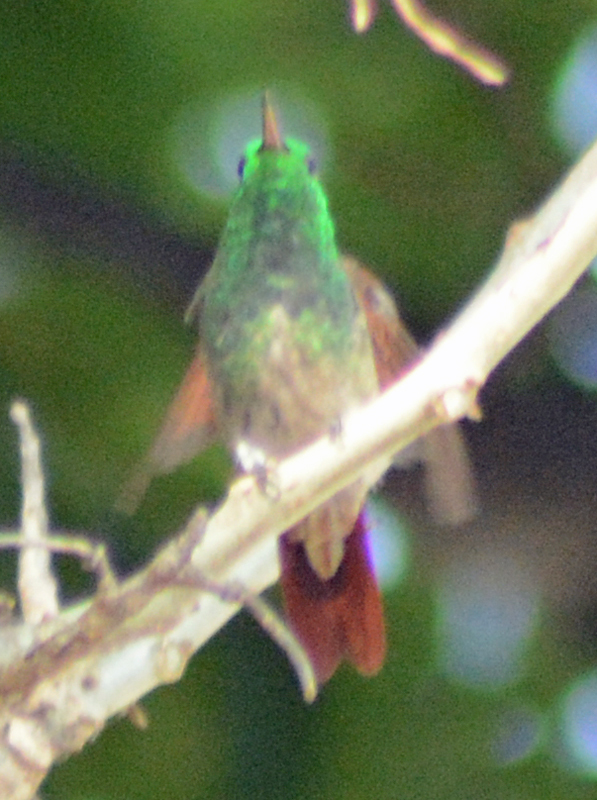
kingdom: Animalia
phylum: Chordata
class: Aves
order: Apodiformes
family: Trochilidae
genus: Saucerottia
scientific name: Saucerottia beryllina
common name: Berylline hummingbird
